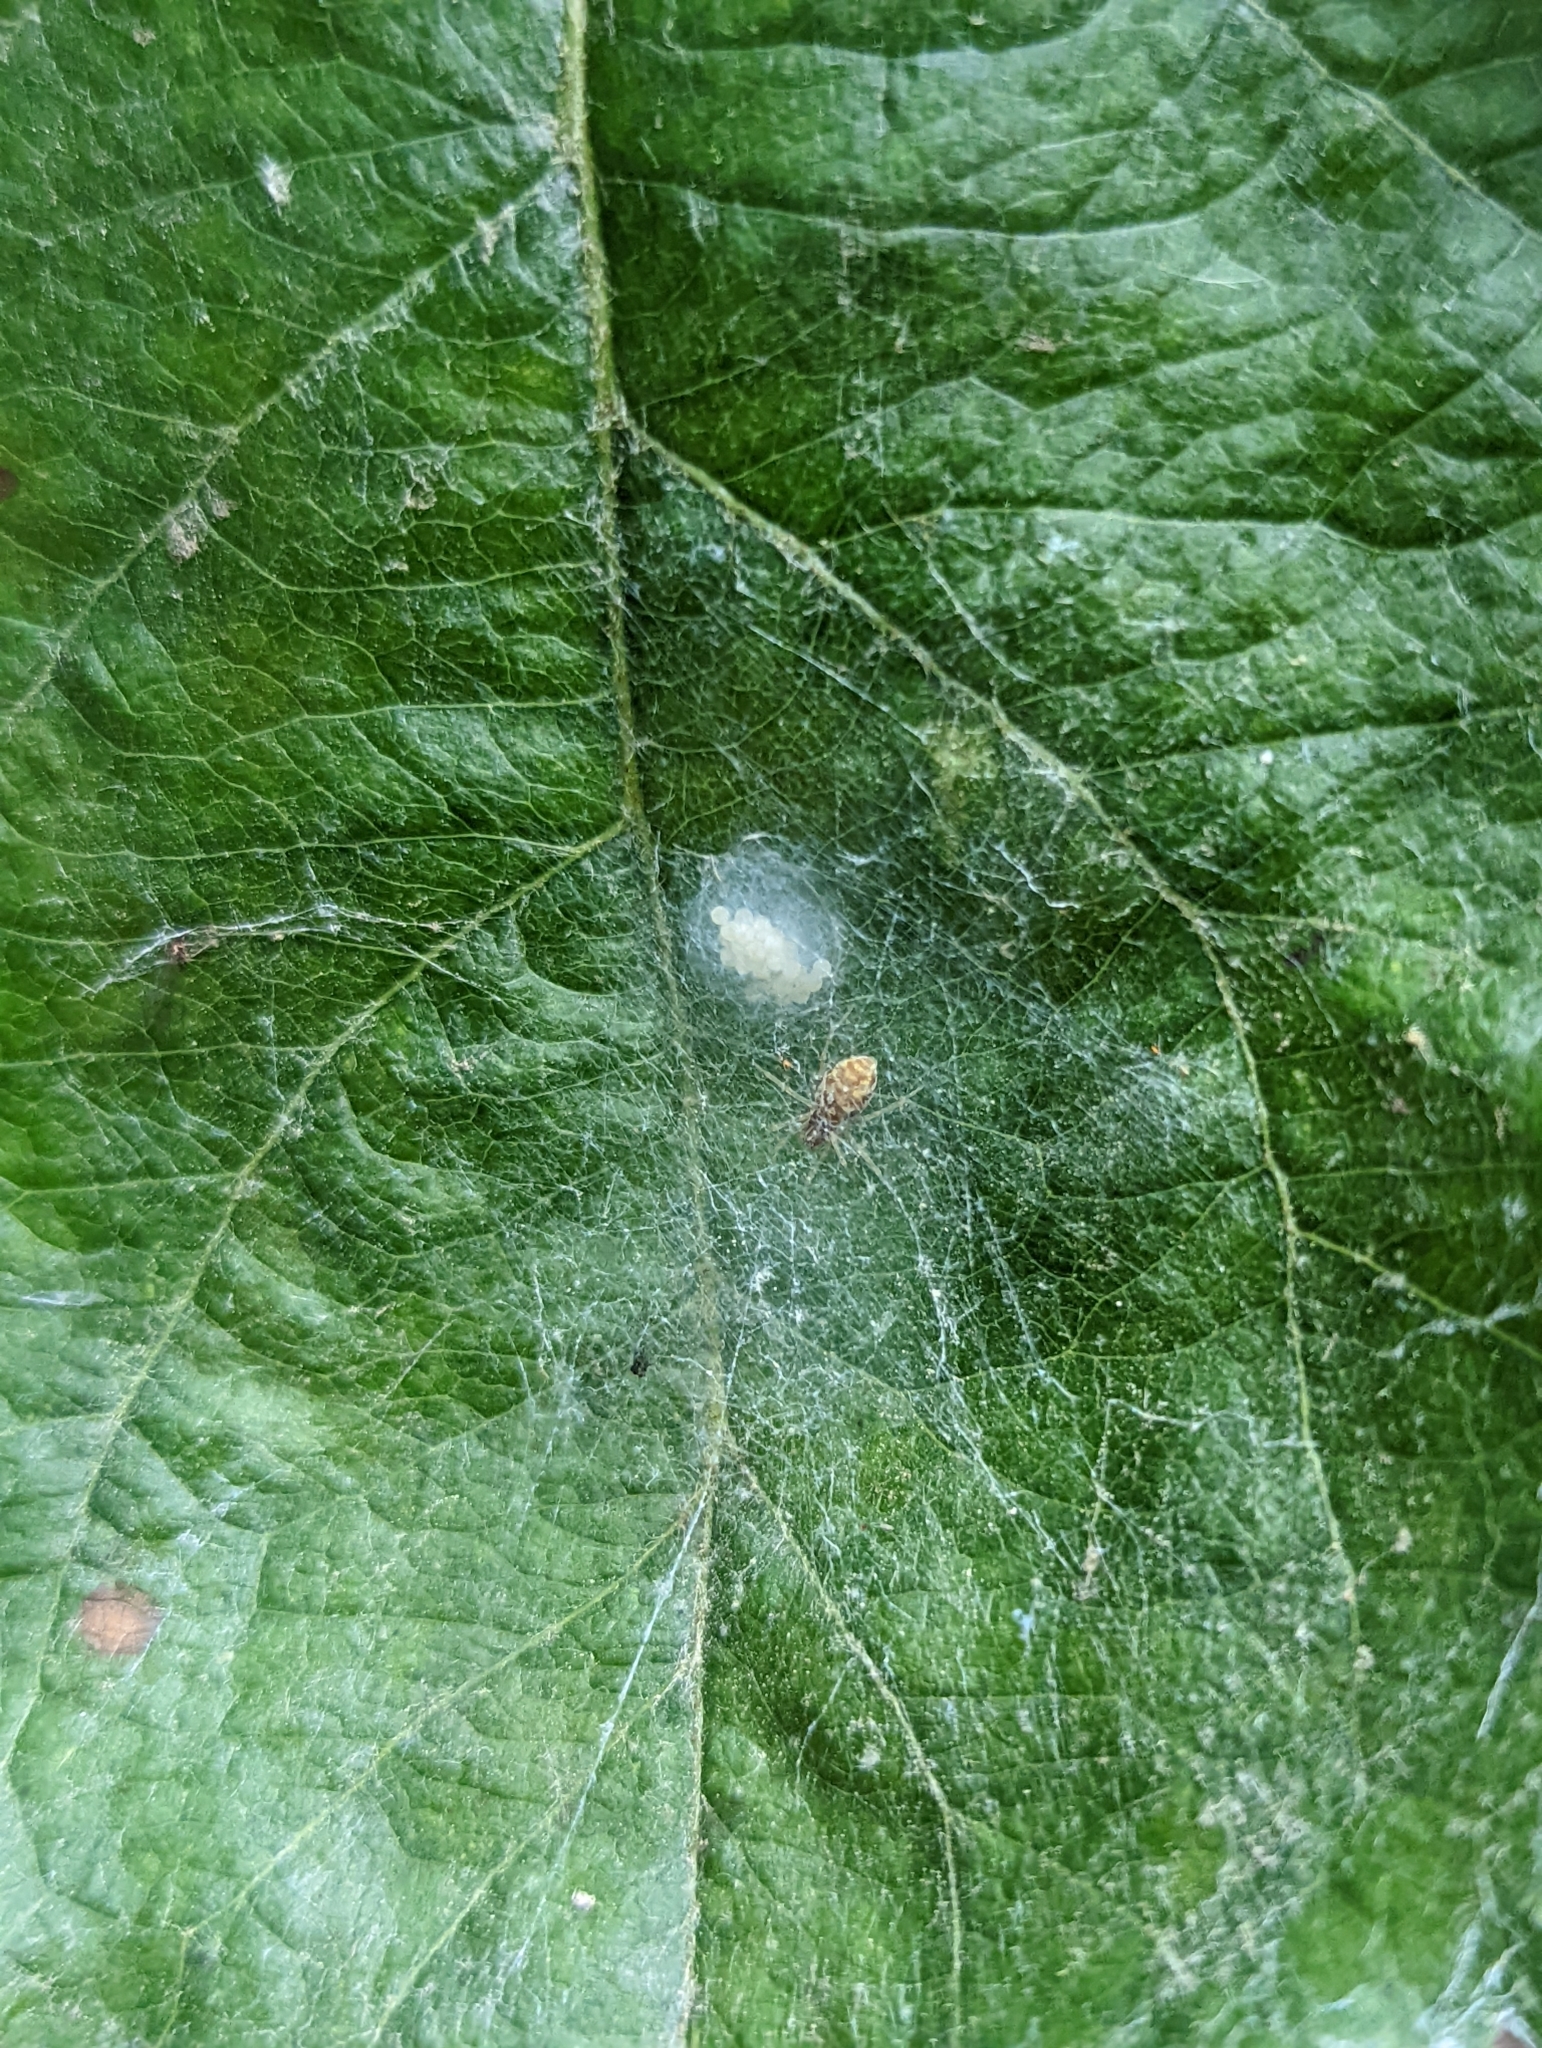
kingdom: Animalia
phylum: Arthropoda
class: Arachnida
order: Araneae
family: Dictynidae
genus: Nigma
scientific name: Nigma flavescens
